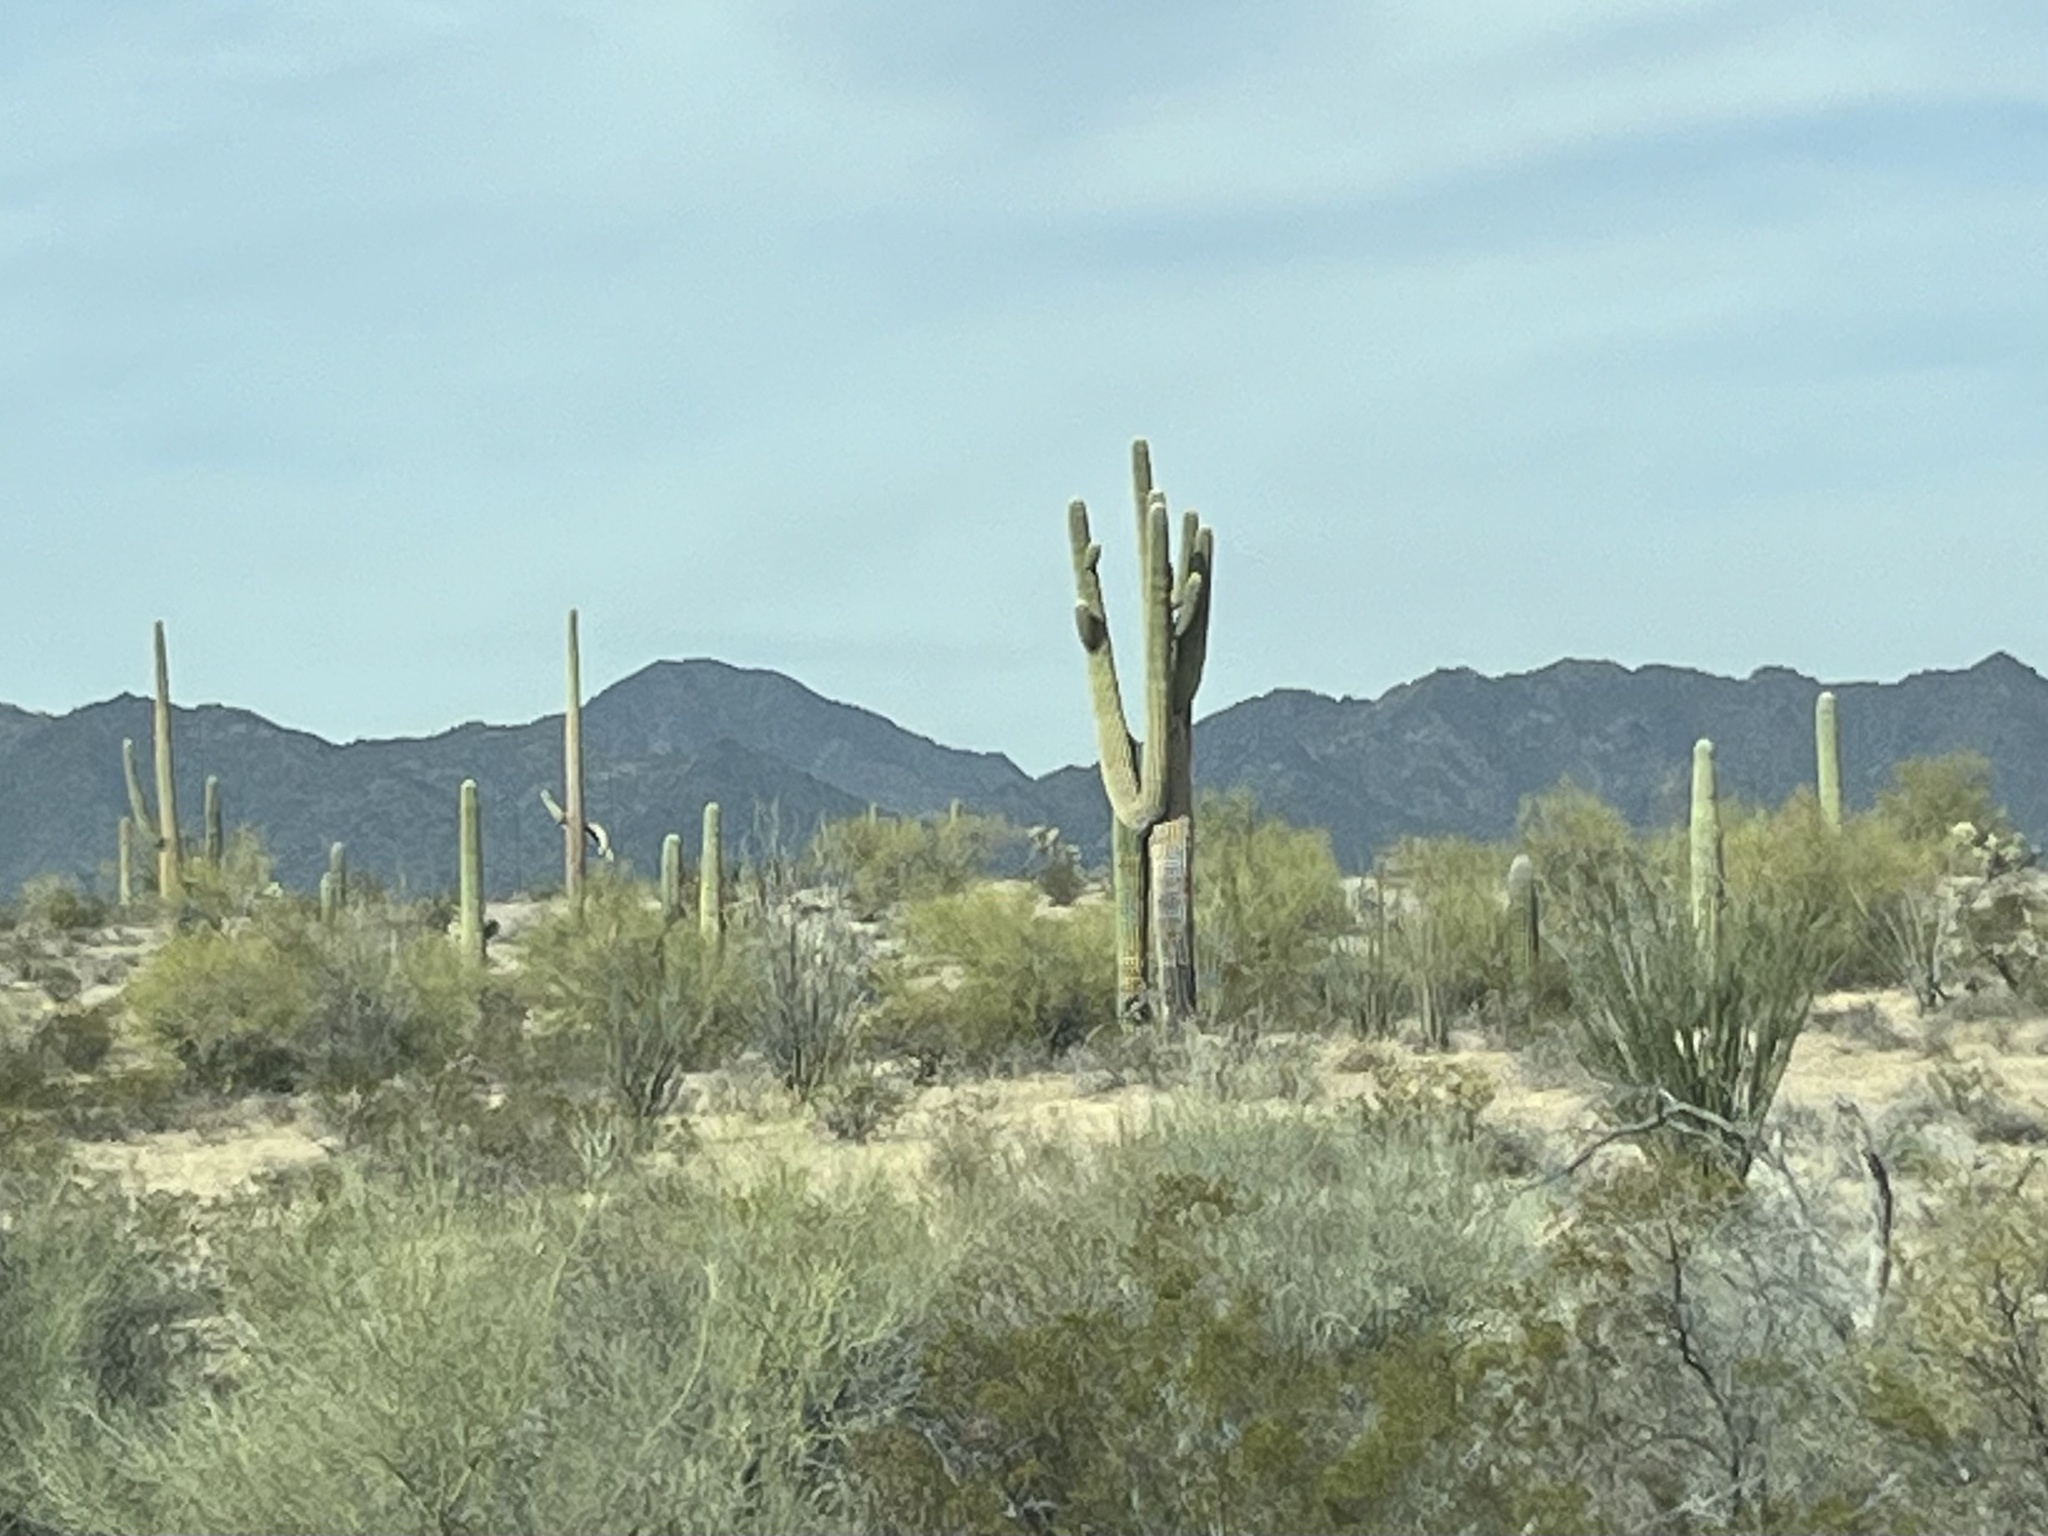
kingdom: Plantae
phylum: Tracheophyta
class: Magnoliopsida
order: Caryophyllales
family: Cactaceae
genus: Carnegiea
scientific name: Carnegiea gigantea
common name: Saguaro
